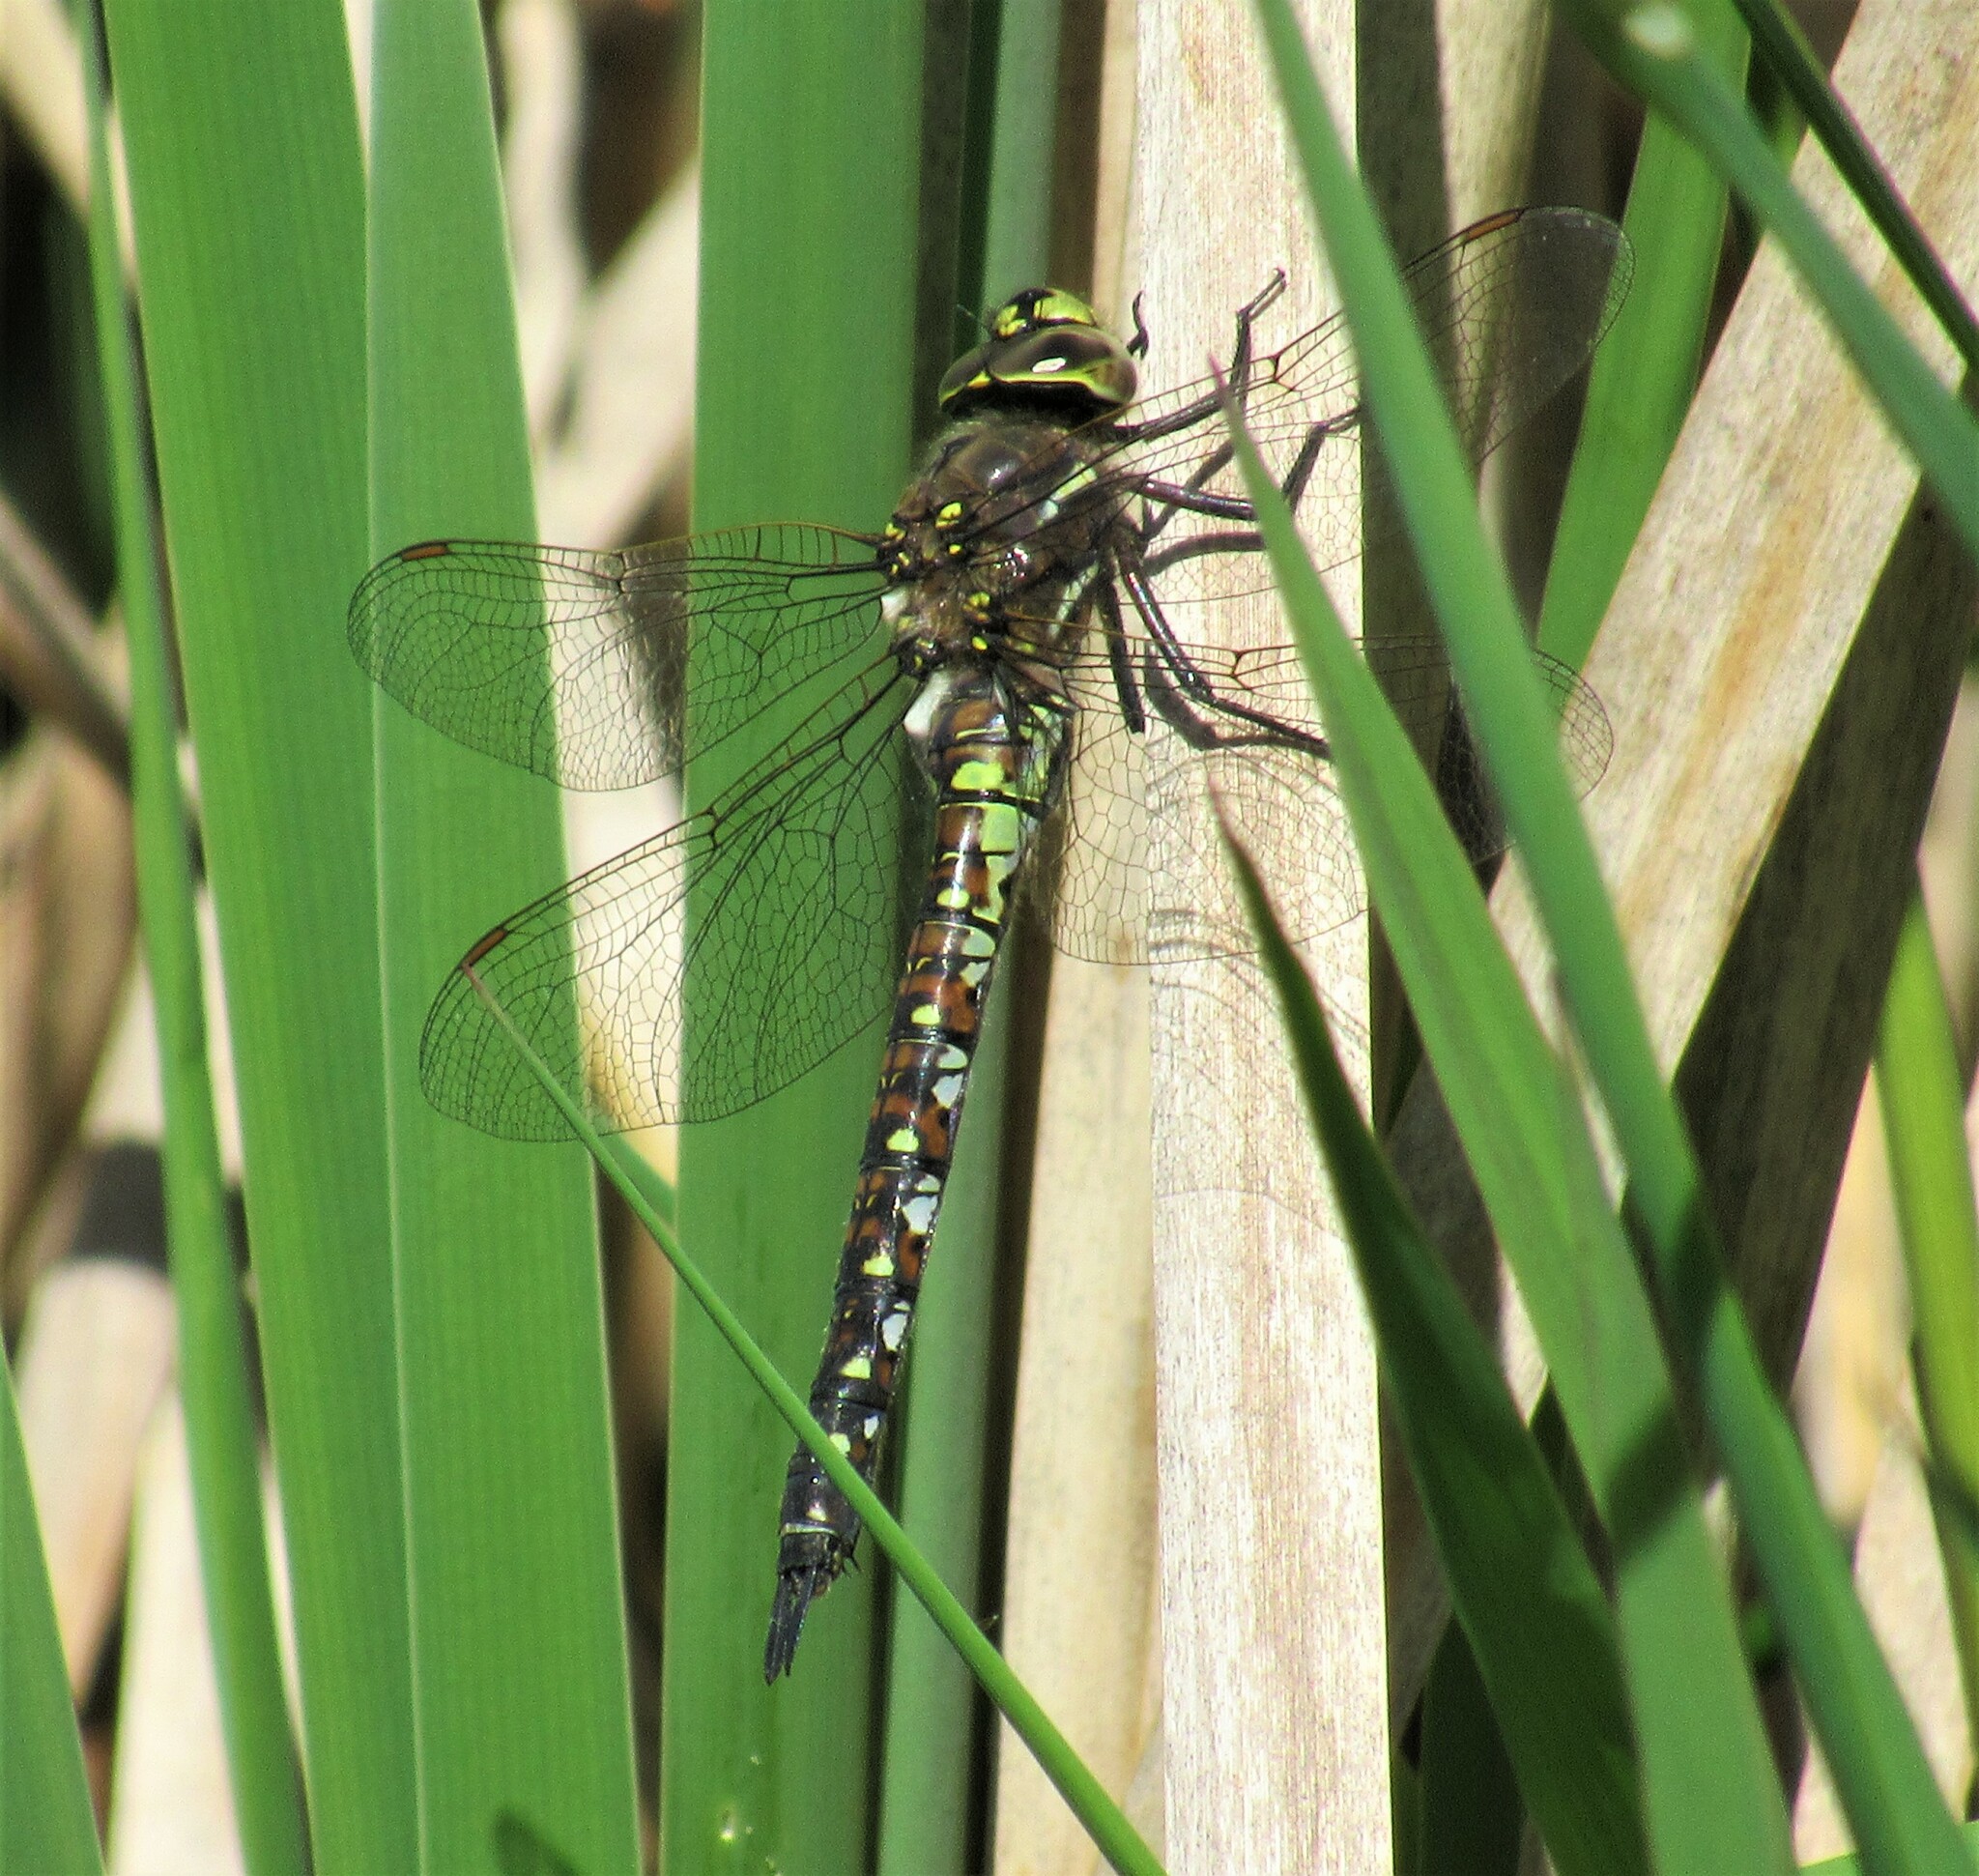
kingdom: Animalia
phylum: Arthropoda
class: Insecta
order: Odonata
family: Aeshnidae
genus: Rhionaeschna
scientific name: Rhionaeschna californica
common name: California darner
